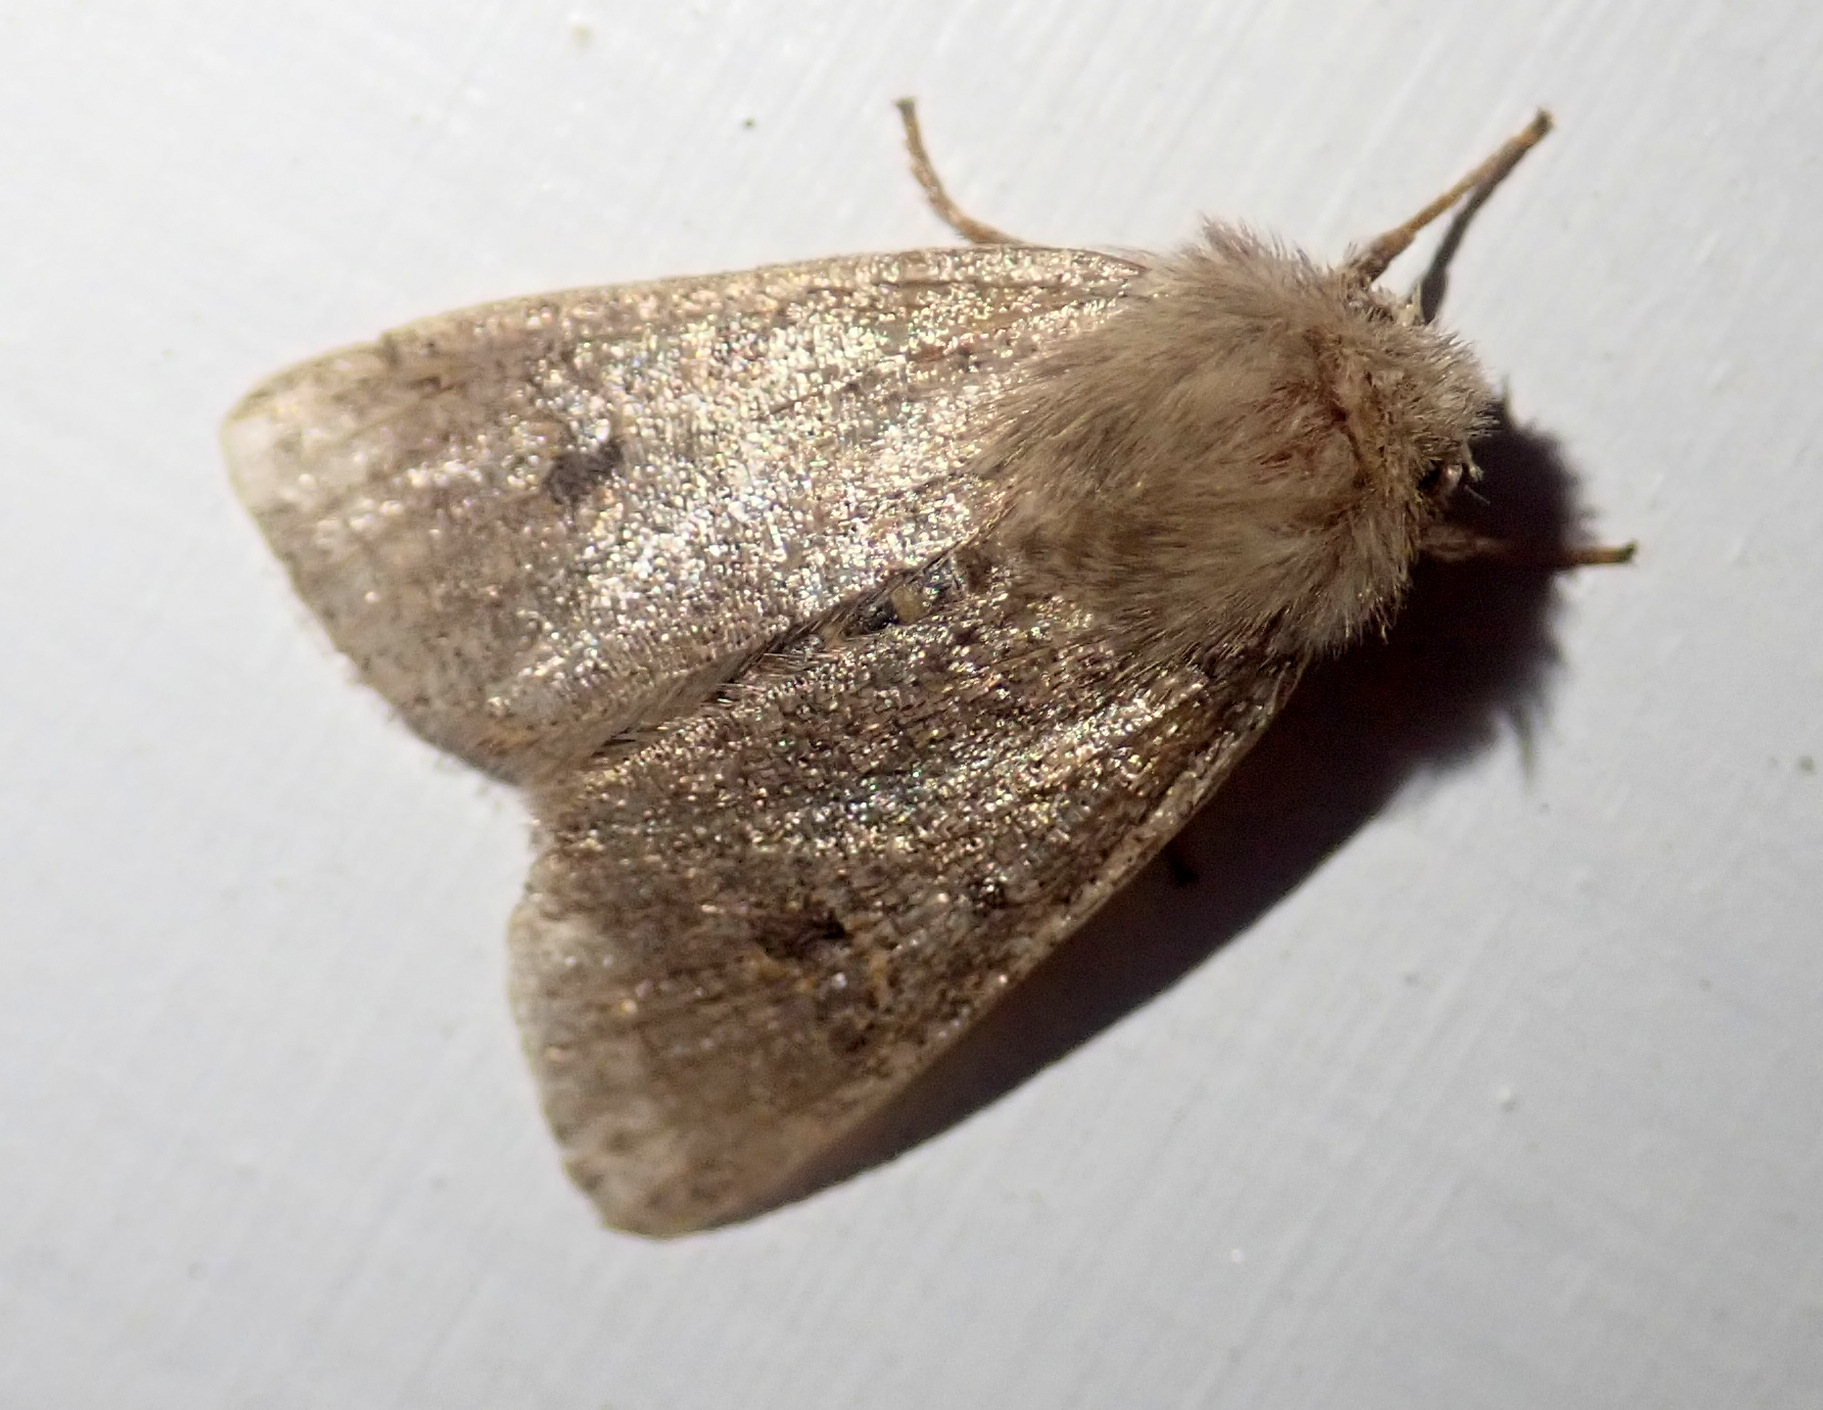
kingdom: Animalia
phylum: Arthropoda
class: Insecta
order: Lepidoptera
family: Noctuidae
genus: Orthosia
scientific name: Orthosia cruda
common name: Small quaker
